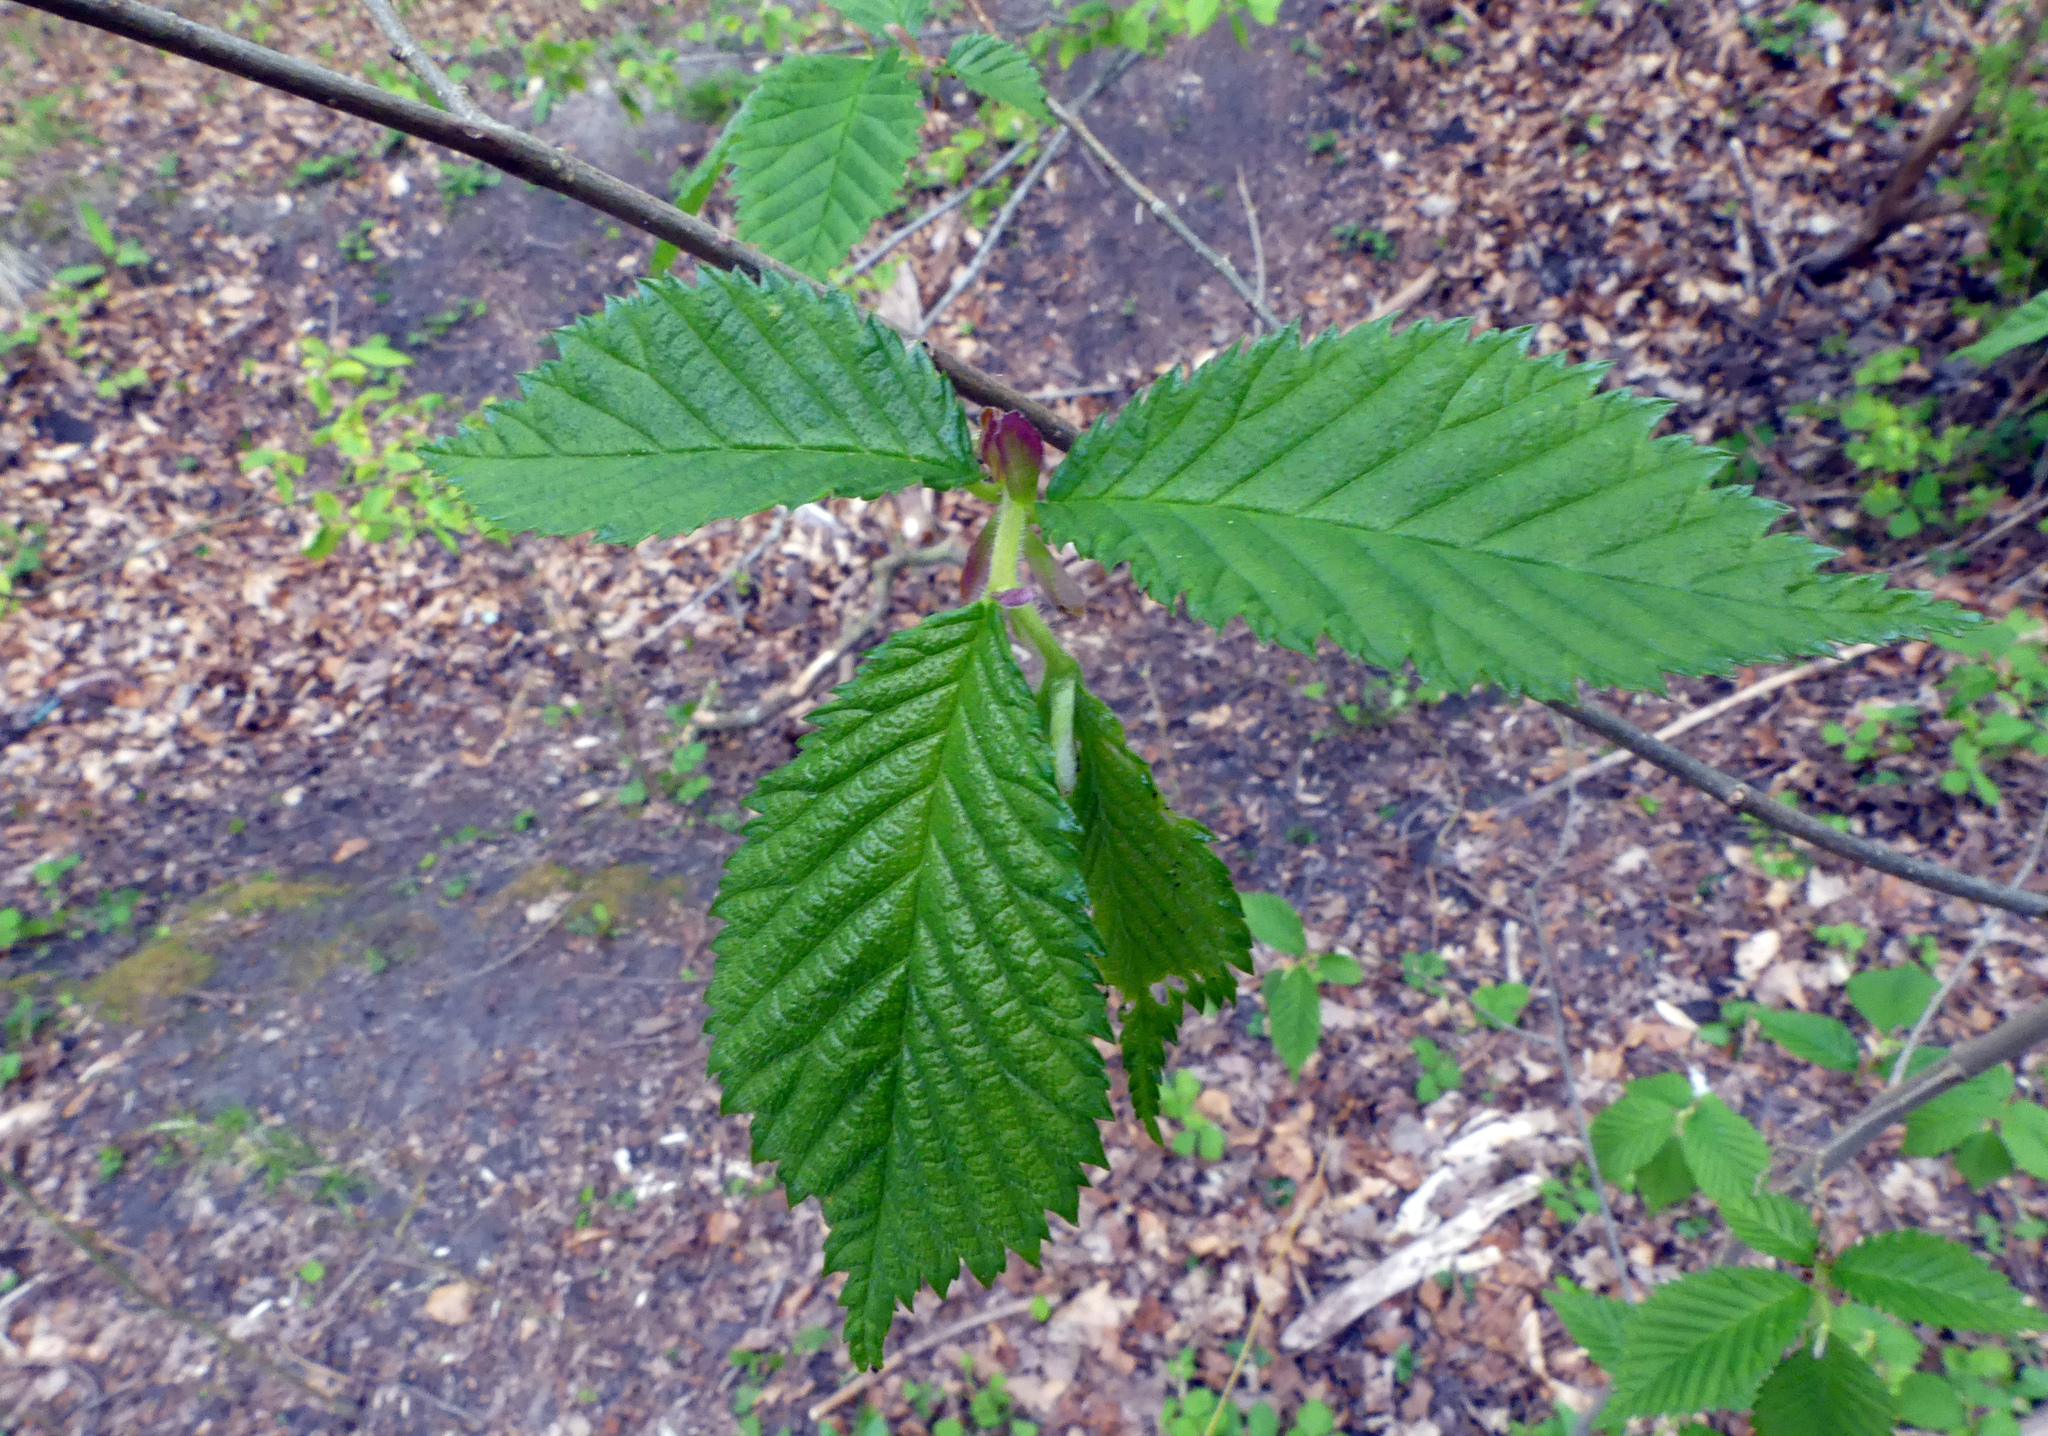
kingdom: Plantae
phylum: Tracheophyta
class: Magnoliopsida
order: Rosales
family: Ulmaceae
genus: Ulmus
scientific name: Ulmus glabra
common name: Wych elm
